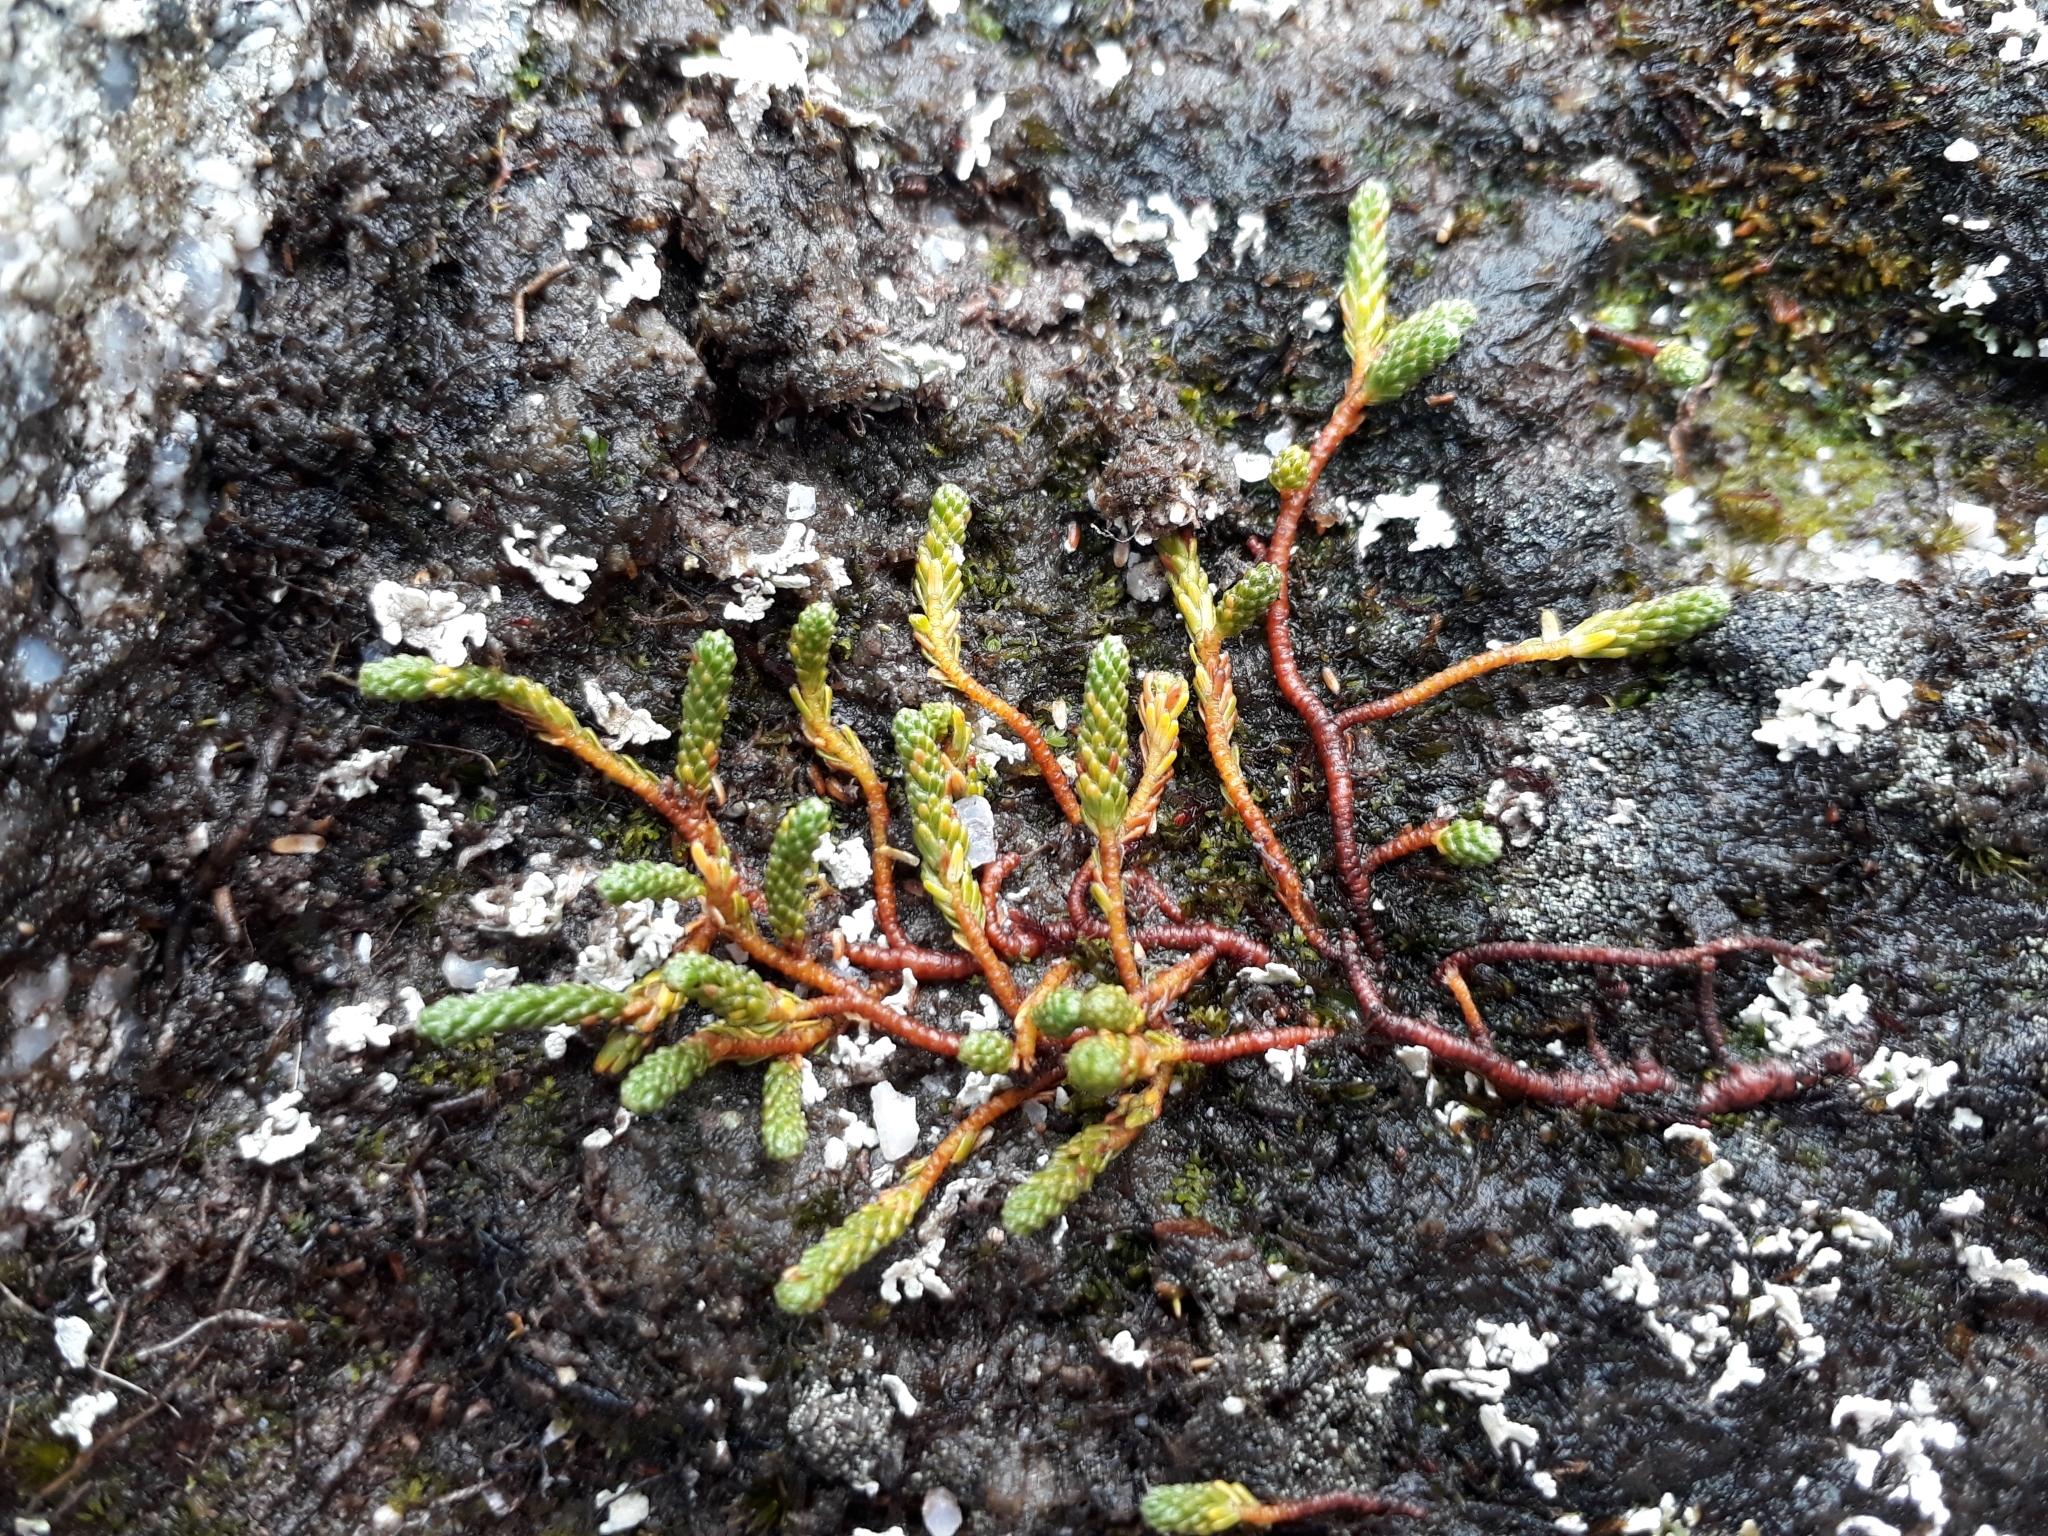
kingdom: Plantae
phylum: Tracheophyta
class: Magnoliopsida
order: Malvales
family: Thymelaeaceae
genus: Kelleria
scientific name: Kelleria dieffenbachii
